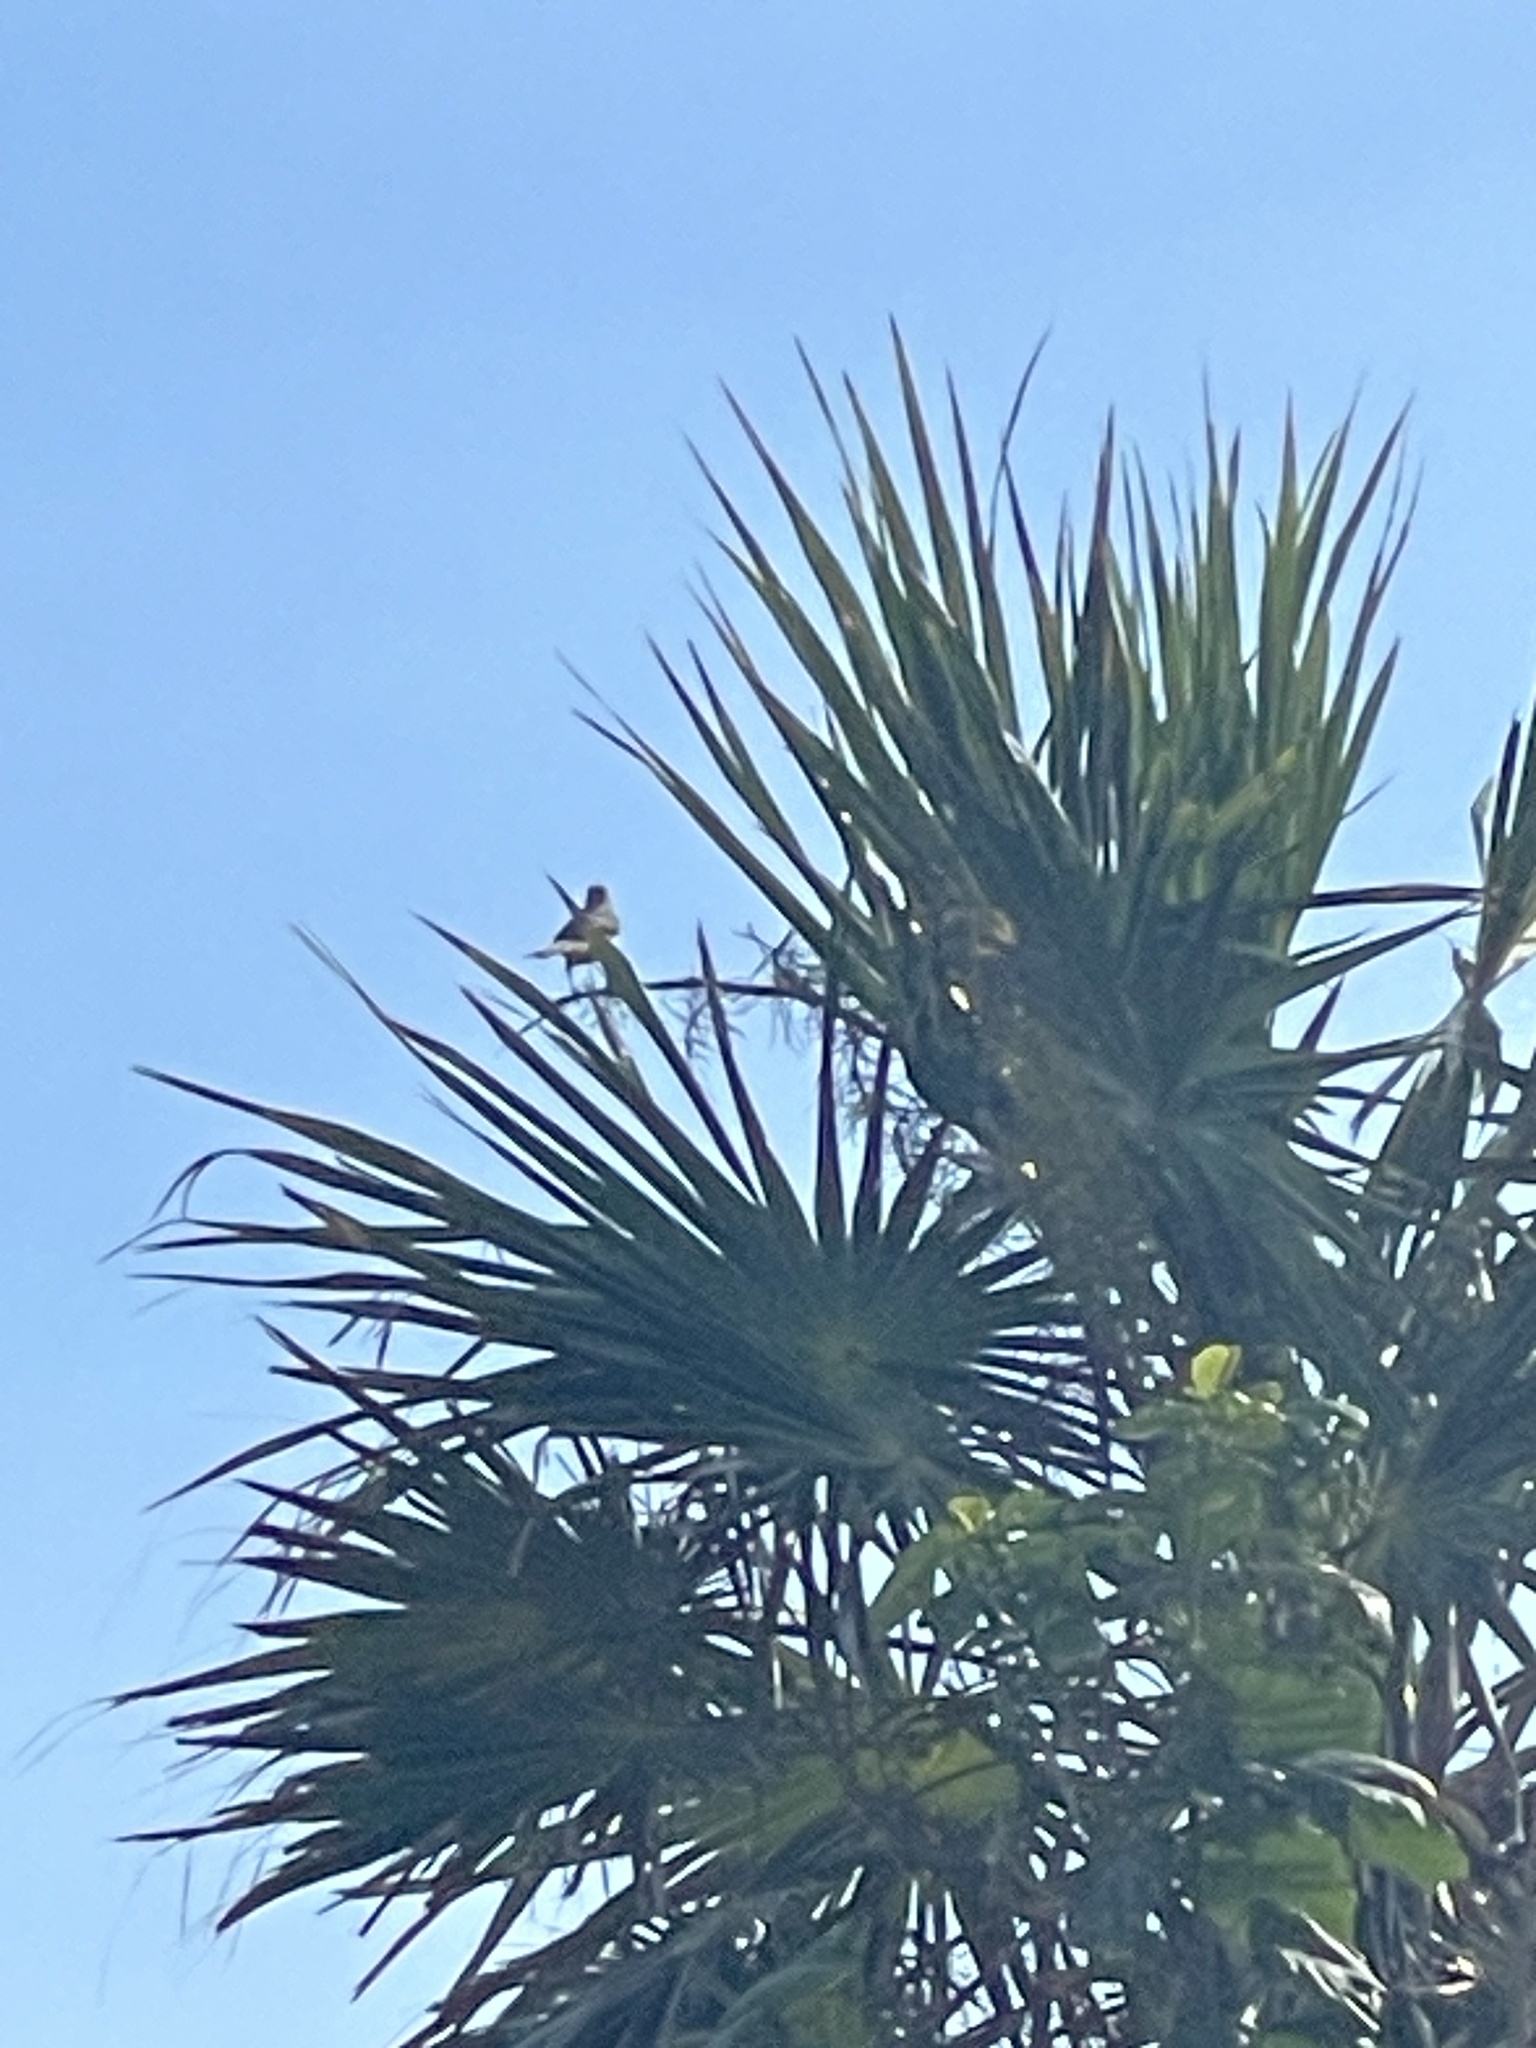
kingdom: Animalia
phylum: Chordata
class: Aves
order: Passeriformes
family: Mimidae
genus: Mimus
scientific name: Mimus gilvus
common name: Tropical mockingbird
